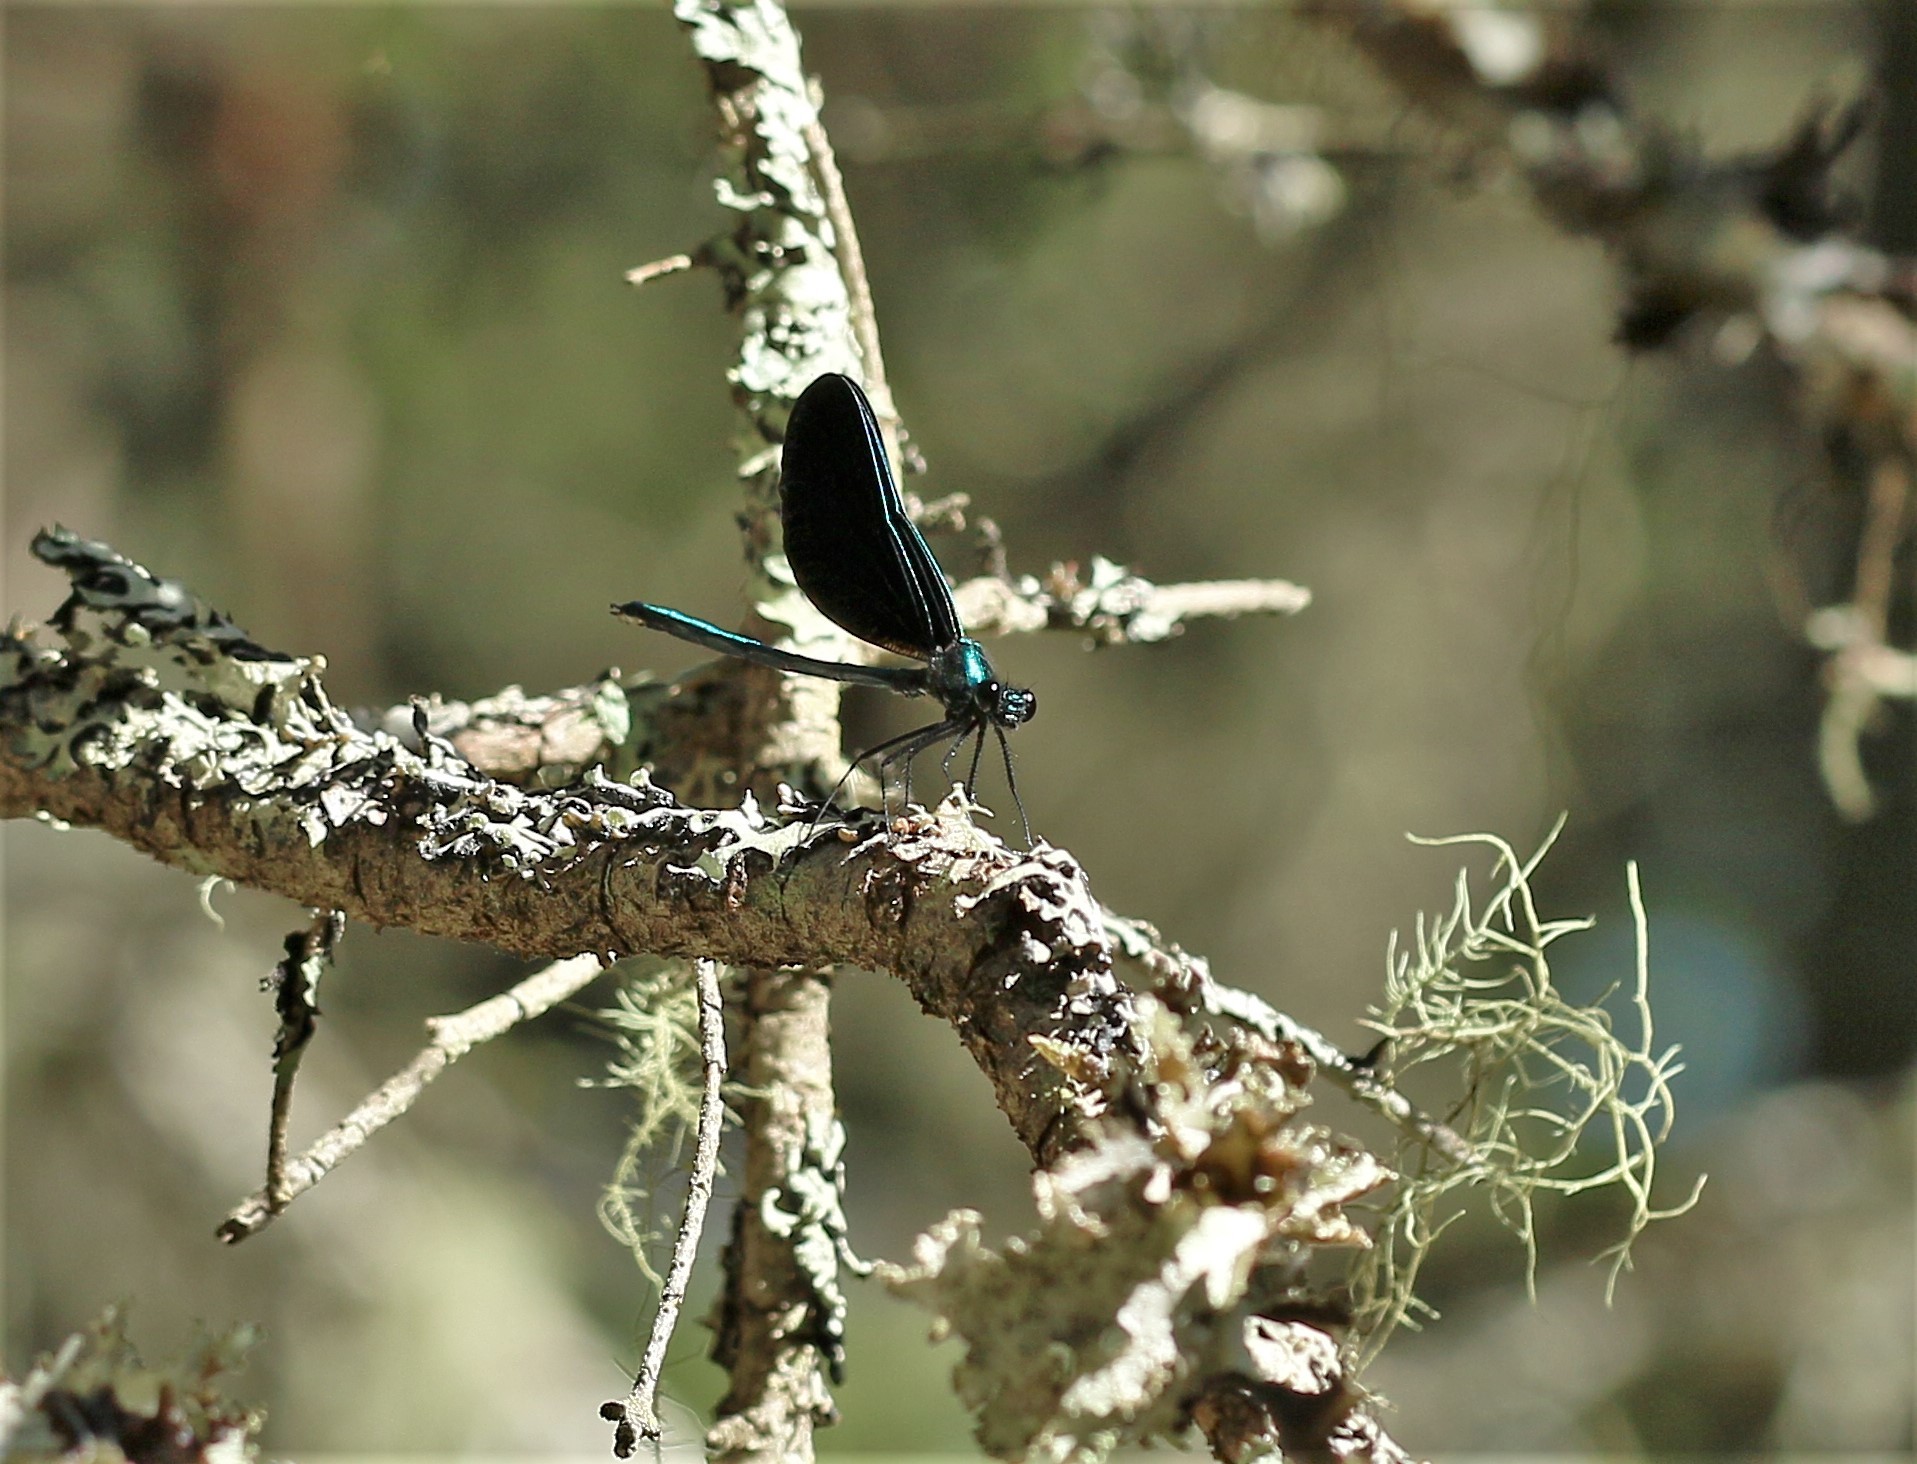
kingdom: Animalia
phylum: Arthropoda
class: Insecta
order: Odonata
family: Calopterygidae
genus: Calopteryx
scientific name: Calopteryx maculata
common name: Ebony jewelwing
